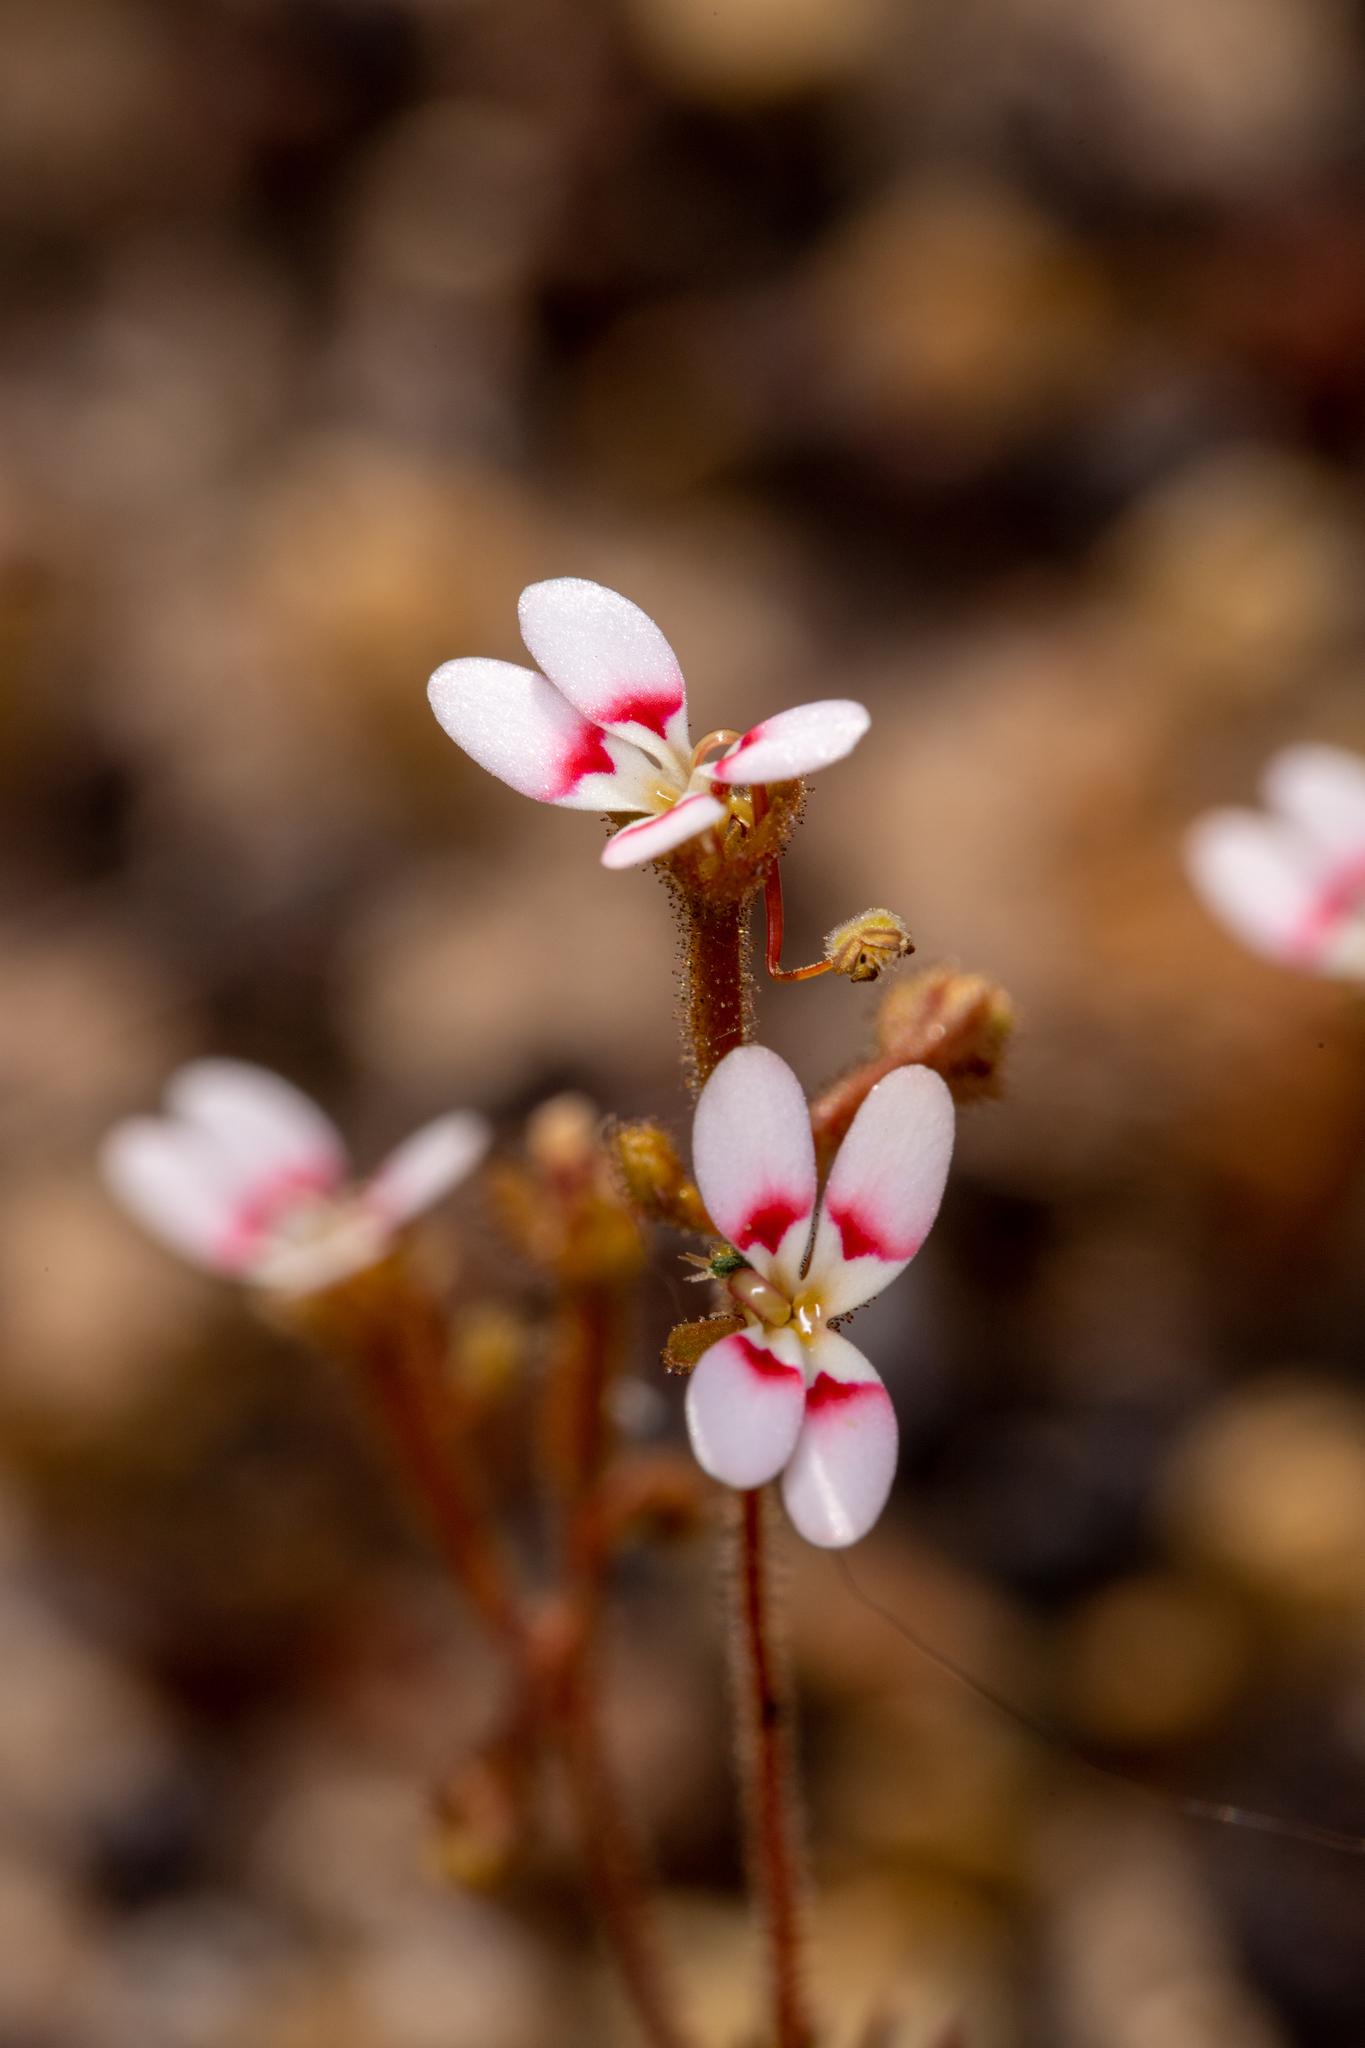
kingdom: Plantae
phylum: Tracheophyta
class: Magnoliopsida
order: Asterales
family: Stylidiaceae
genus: Stylidium
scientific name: Stylidium repens
